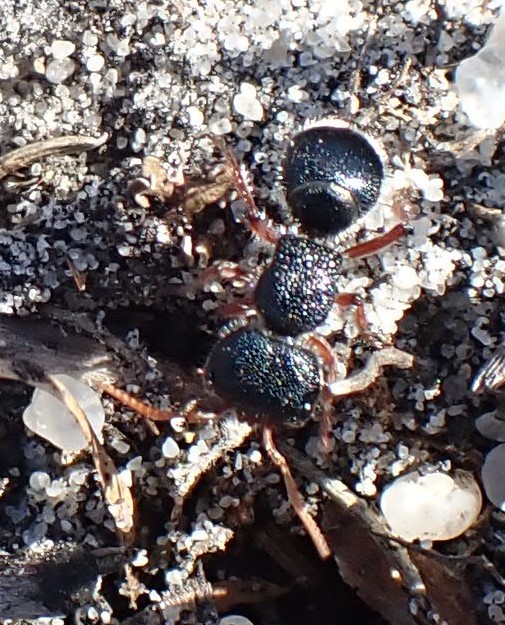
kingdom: Animalia
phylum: Arthropoda
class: Insecta
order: Hymenoptera
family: Mutillidae
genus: Ephutomorpha
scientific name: Ephutomorpha
